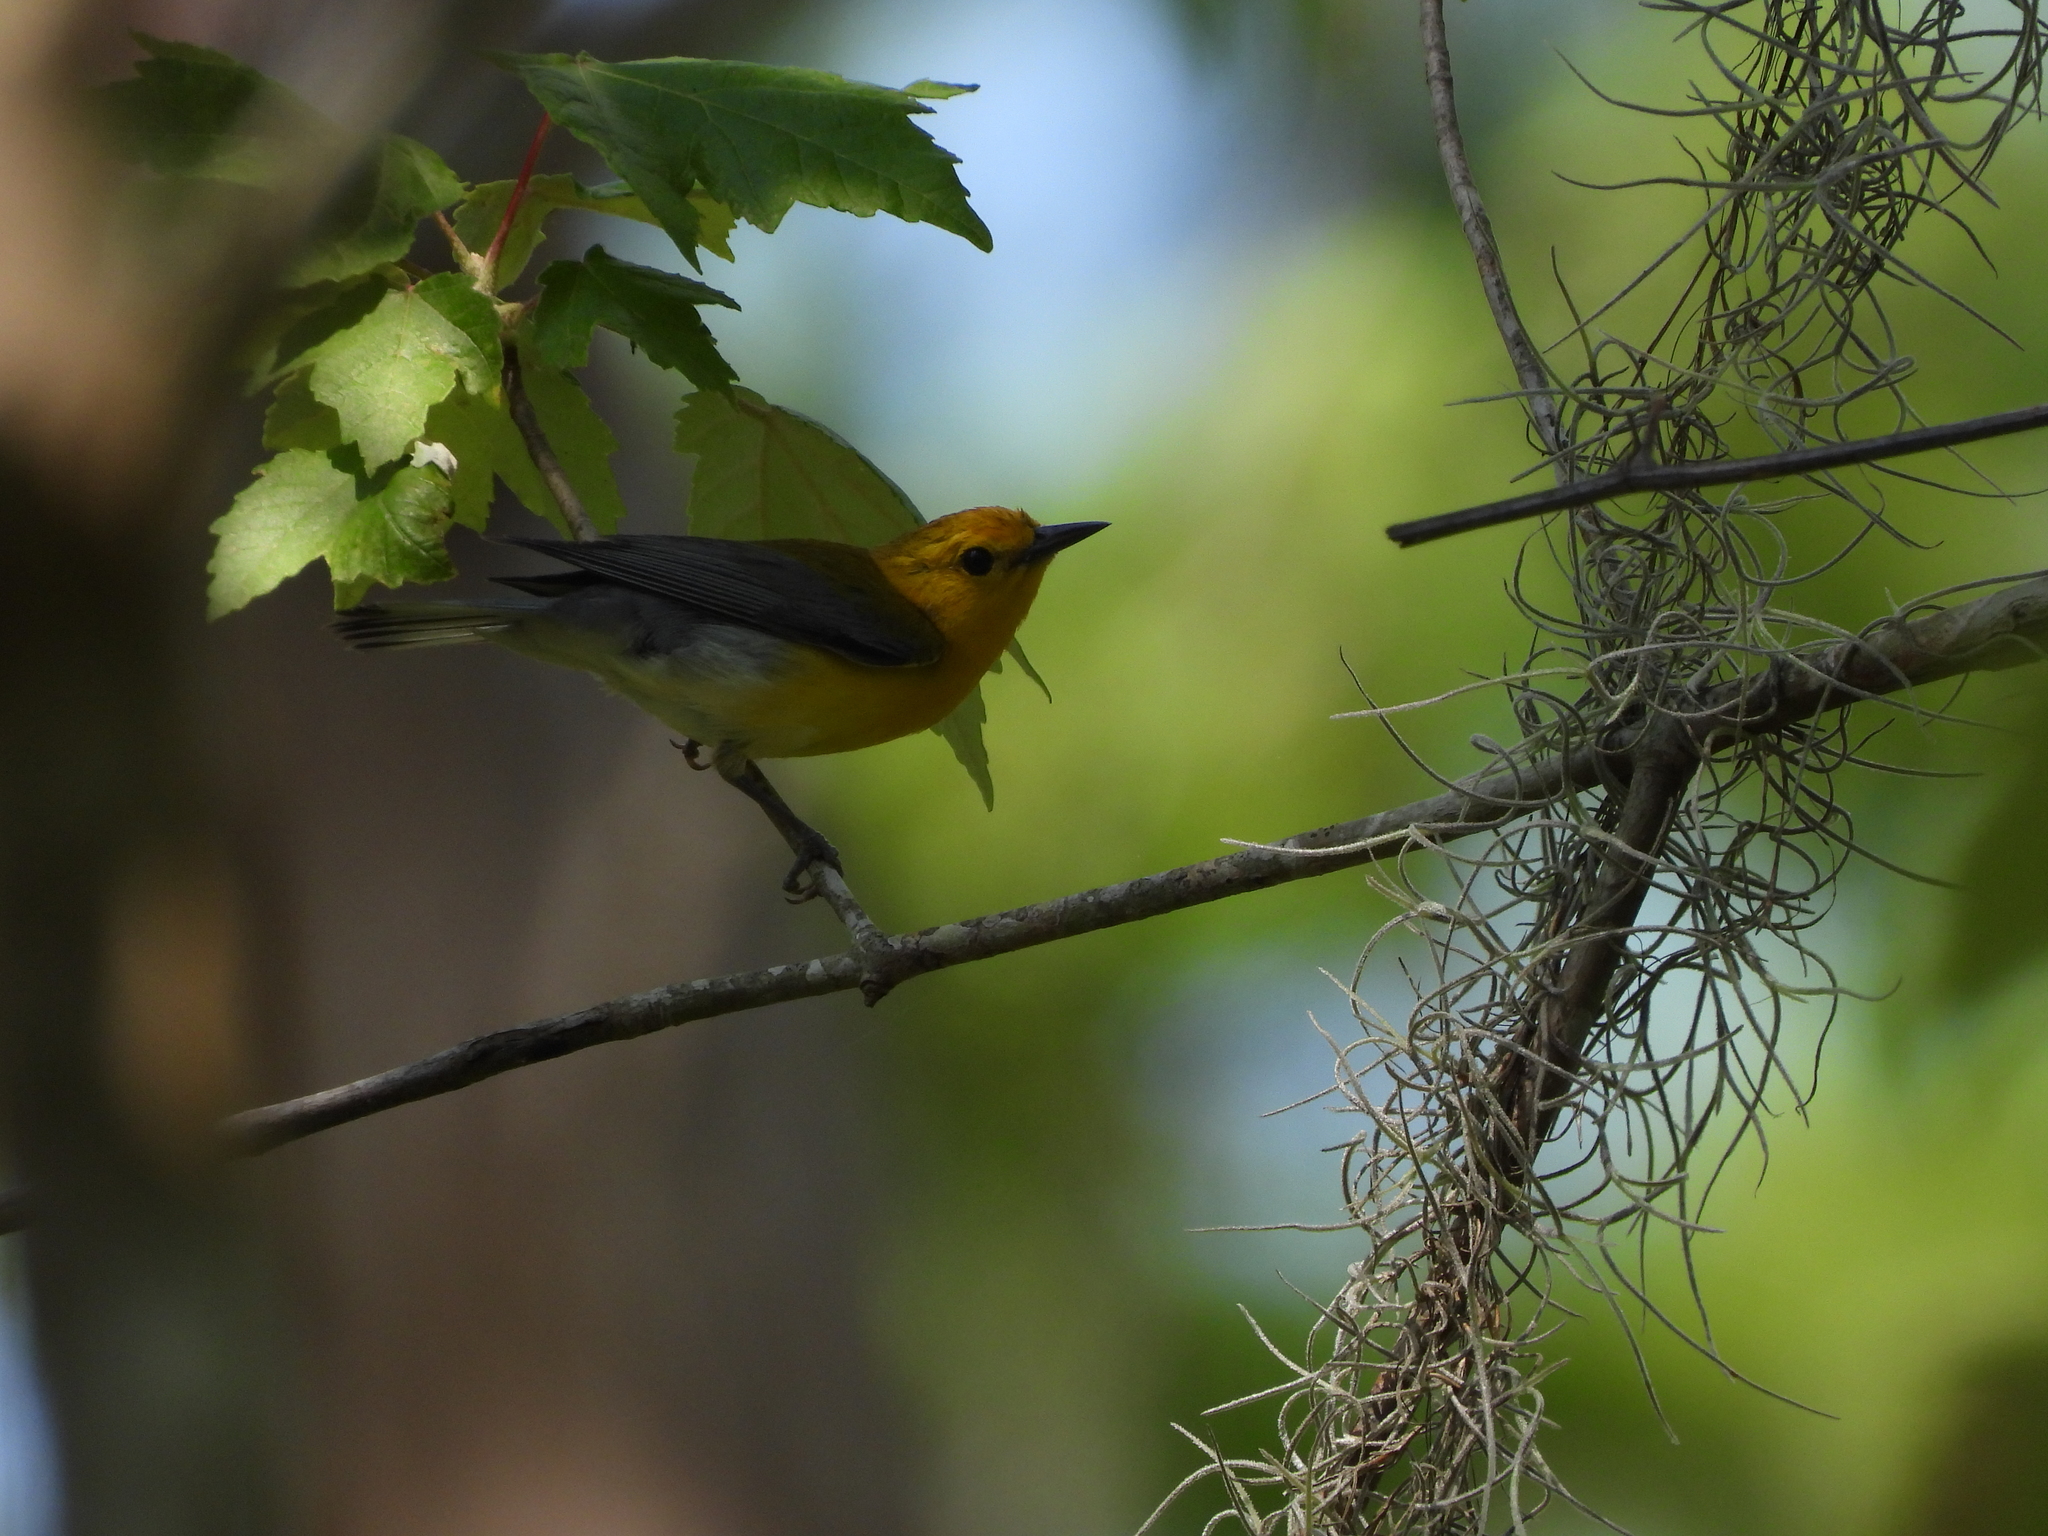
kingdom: Animalia
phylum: Chordata
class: Aves
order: Passeriformes
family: Parulidae
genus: Protonotaria
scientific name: Protonotaria citrea
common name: Prothonotary warbler
